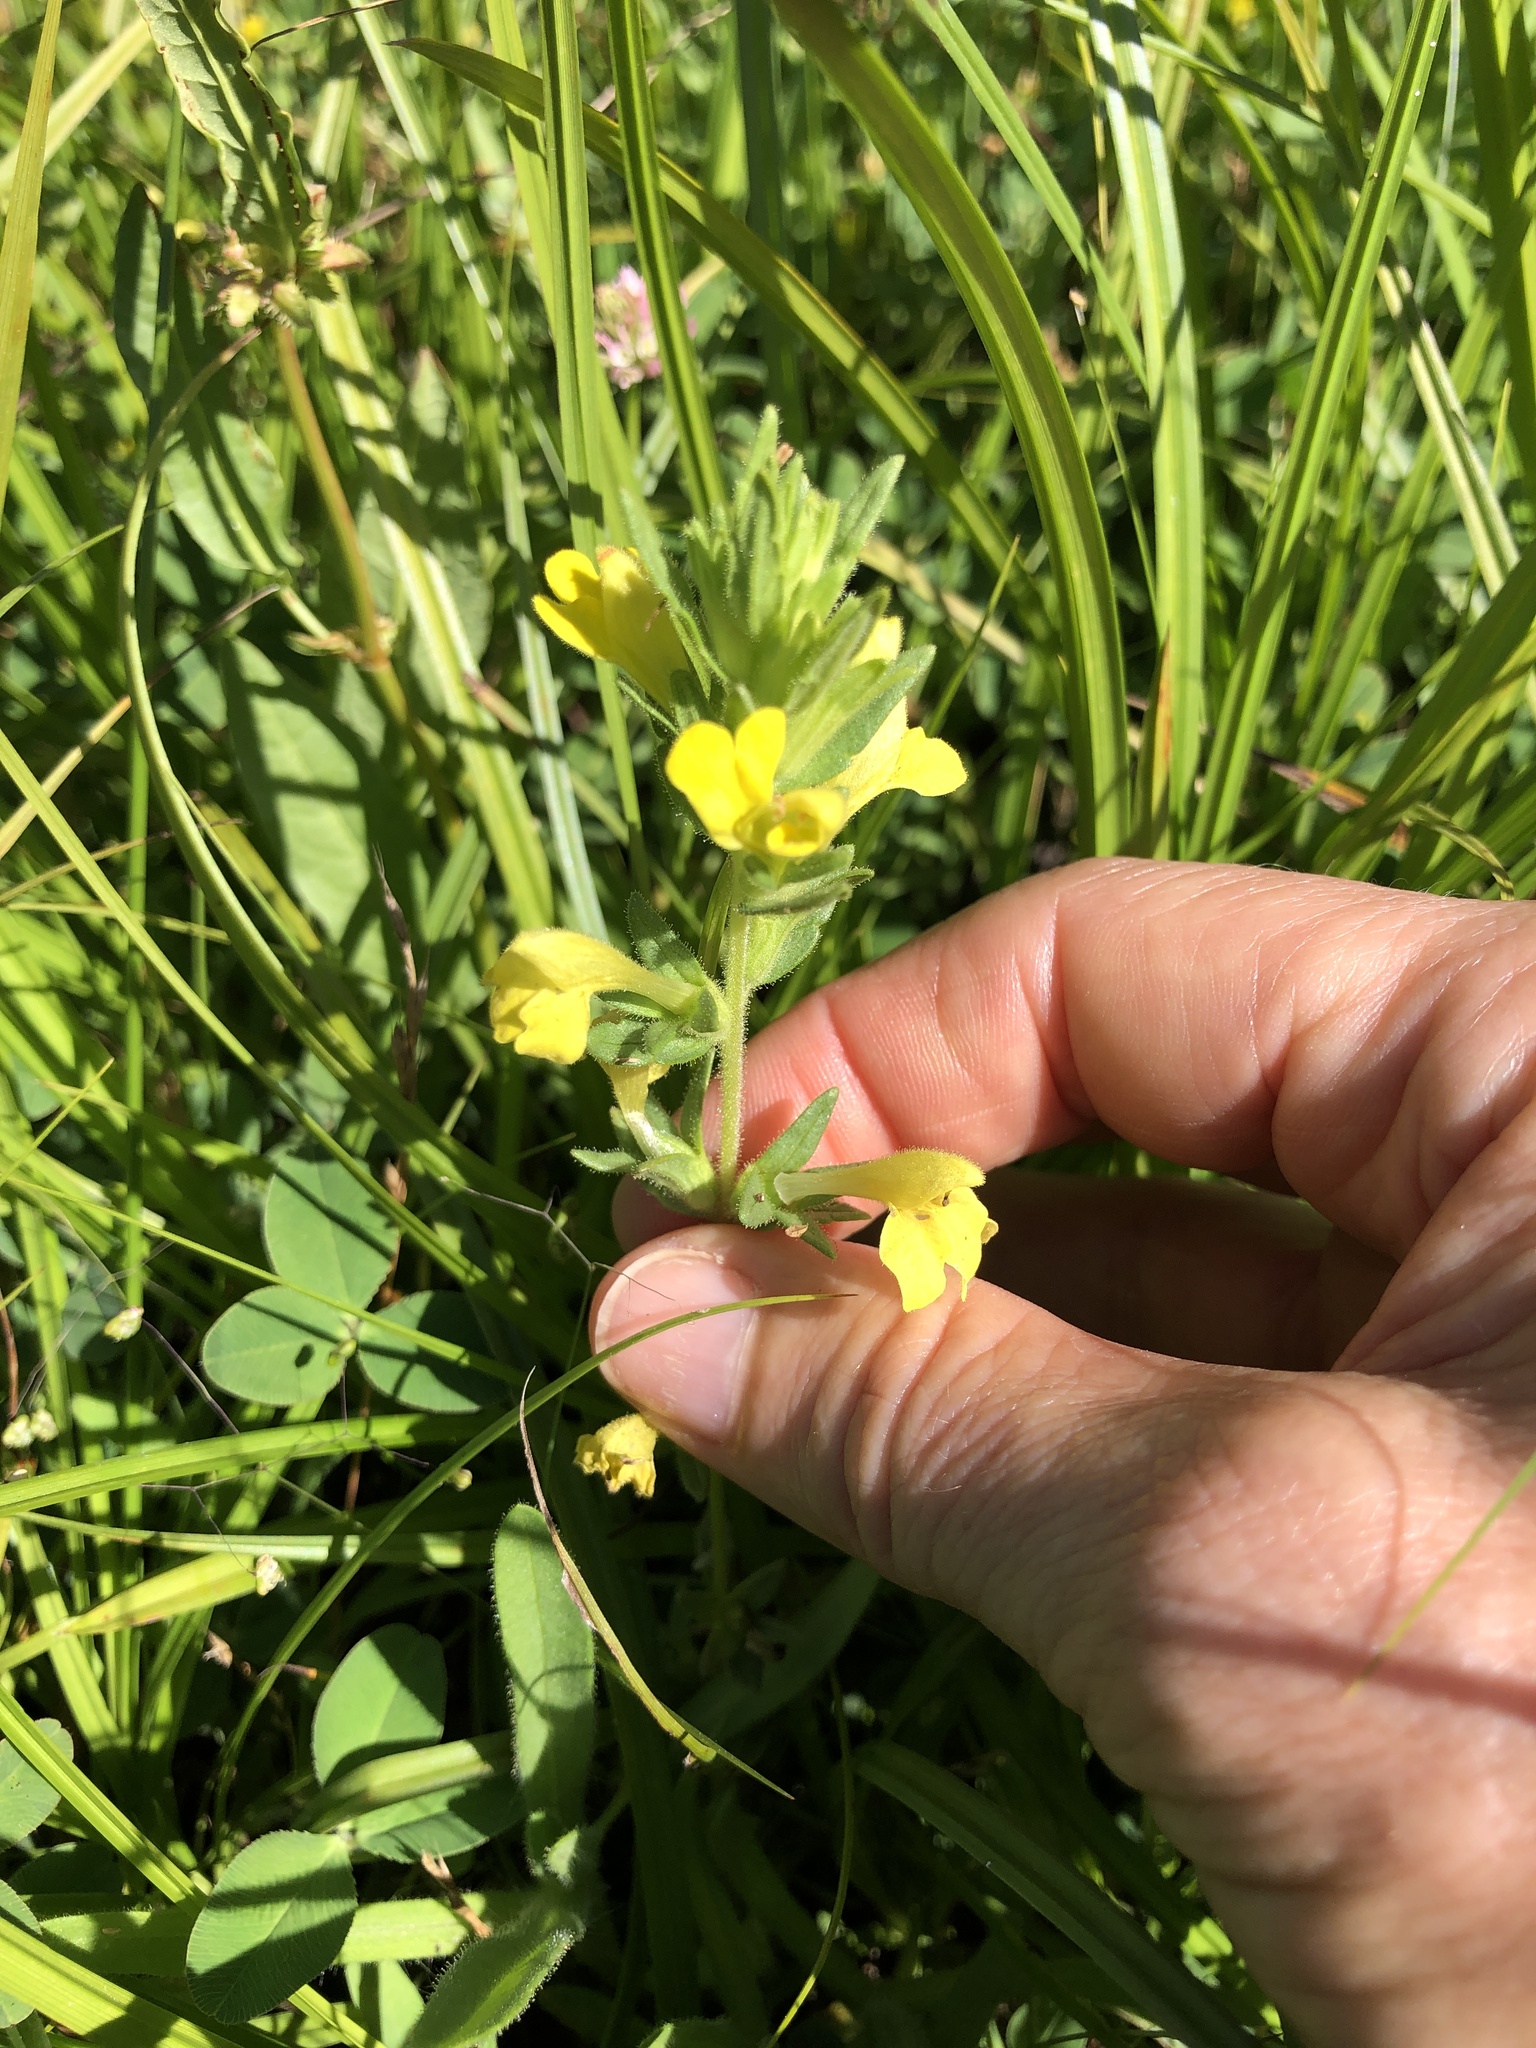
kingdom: Plantae
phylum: Tracheophyta
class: Magnoliopsida
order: Lamiales
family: Orobanchaceae
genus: Bellardia
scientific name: Bellardia viscosa
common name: Sticky parentucellia
